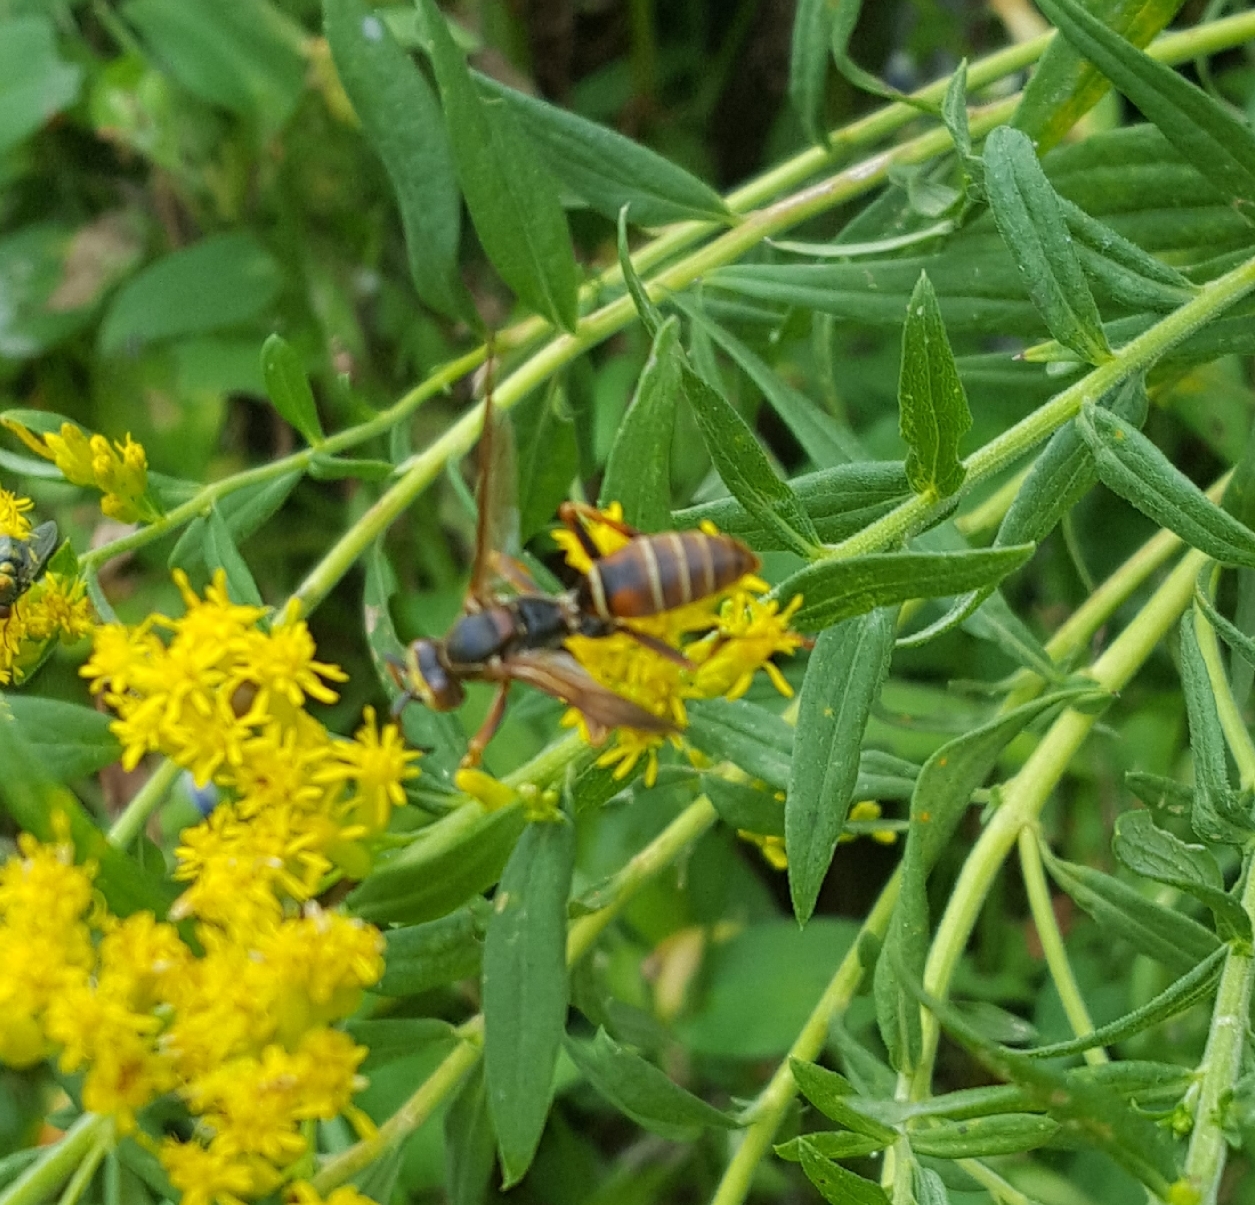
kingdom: Animalia
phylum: Arthropoda
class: Insecta
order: Hymenoptera
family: Eumenidae
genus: Polistes
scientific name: Polistes fuscatus
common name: Dark paper wasp
